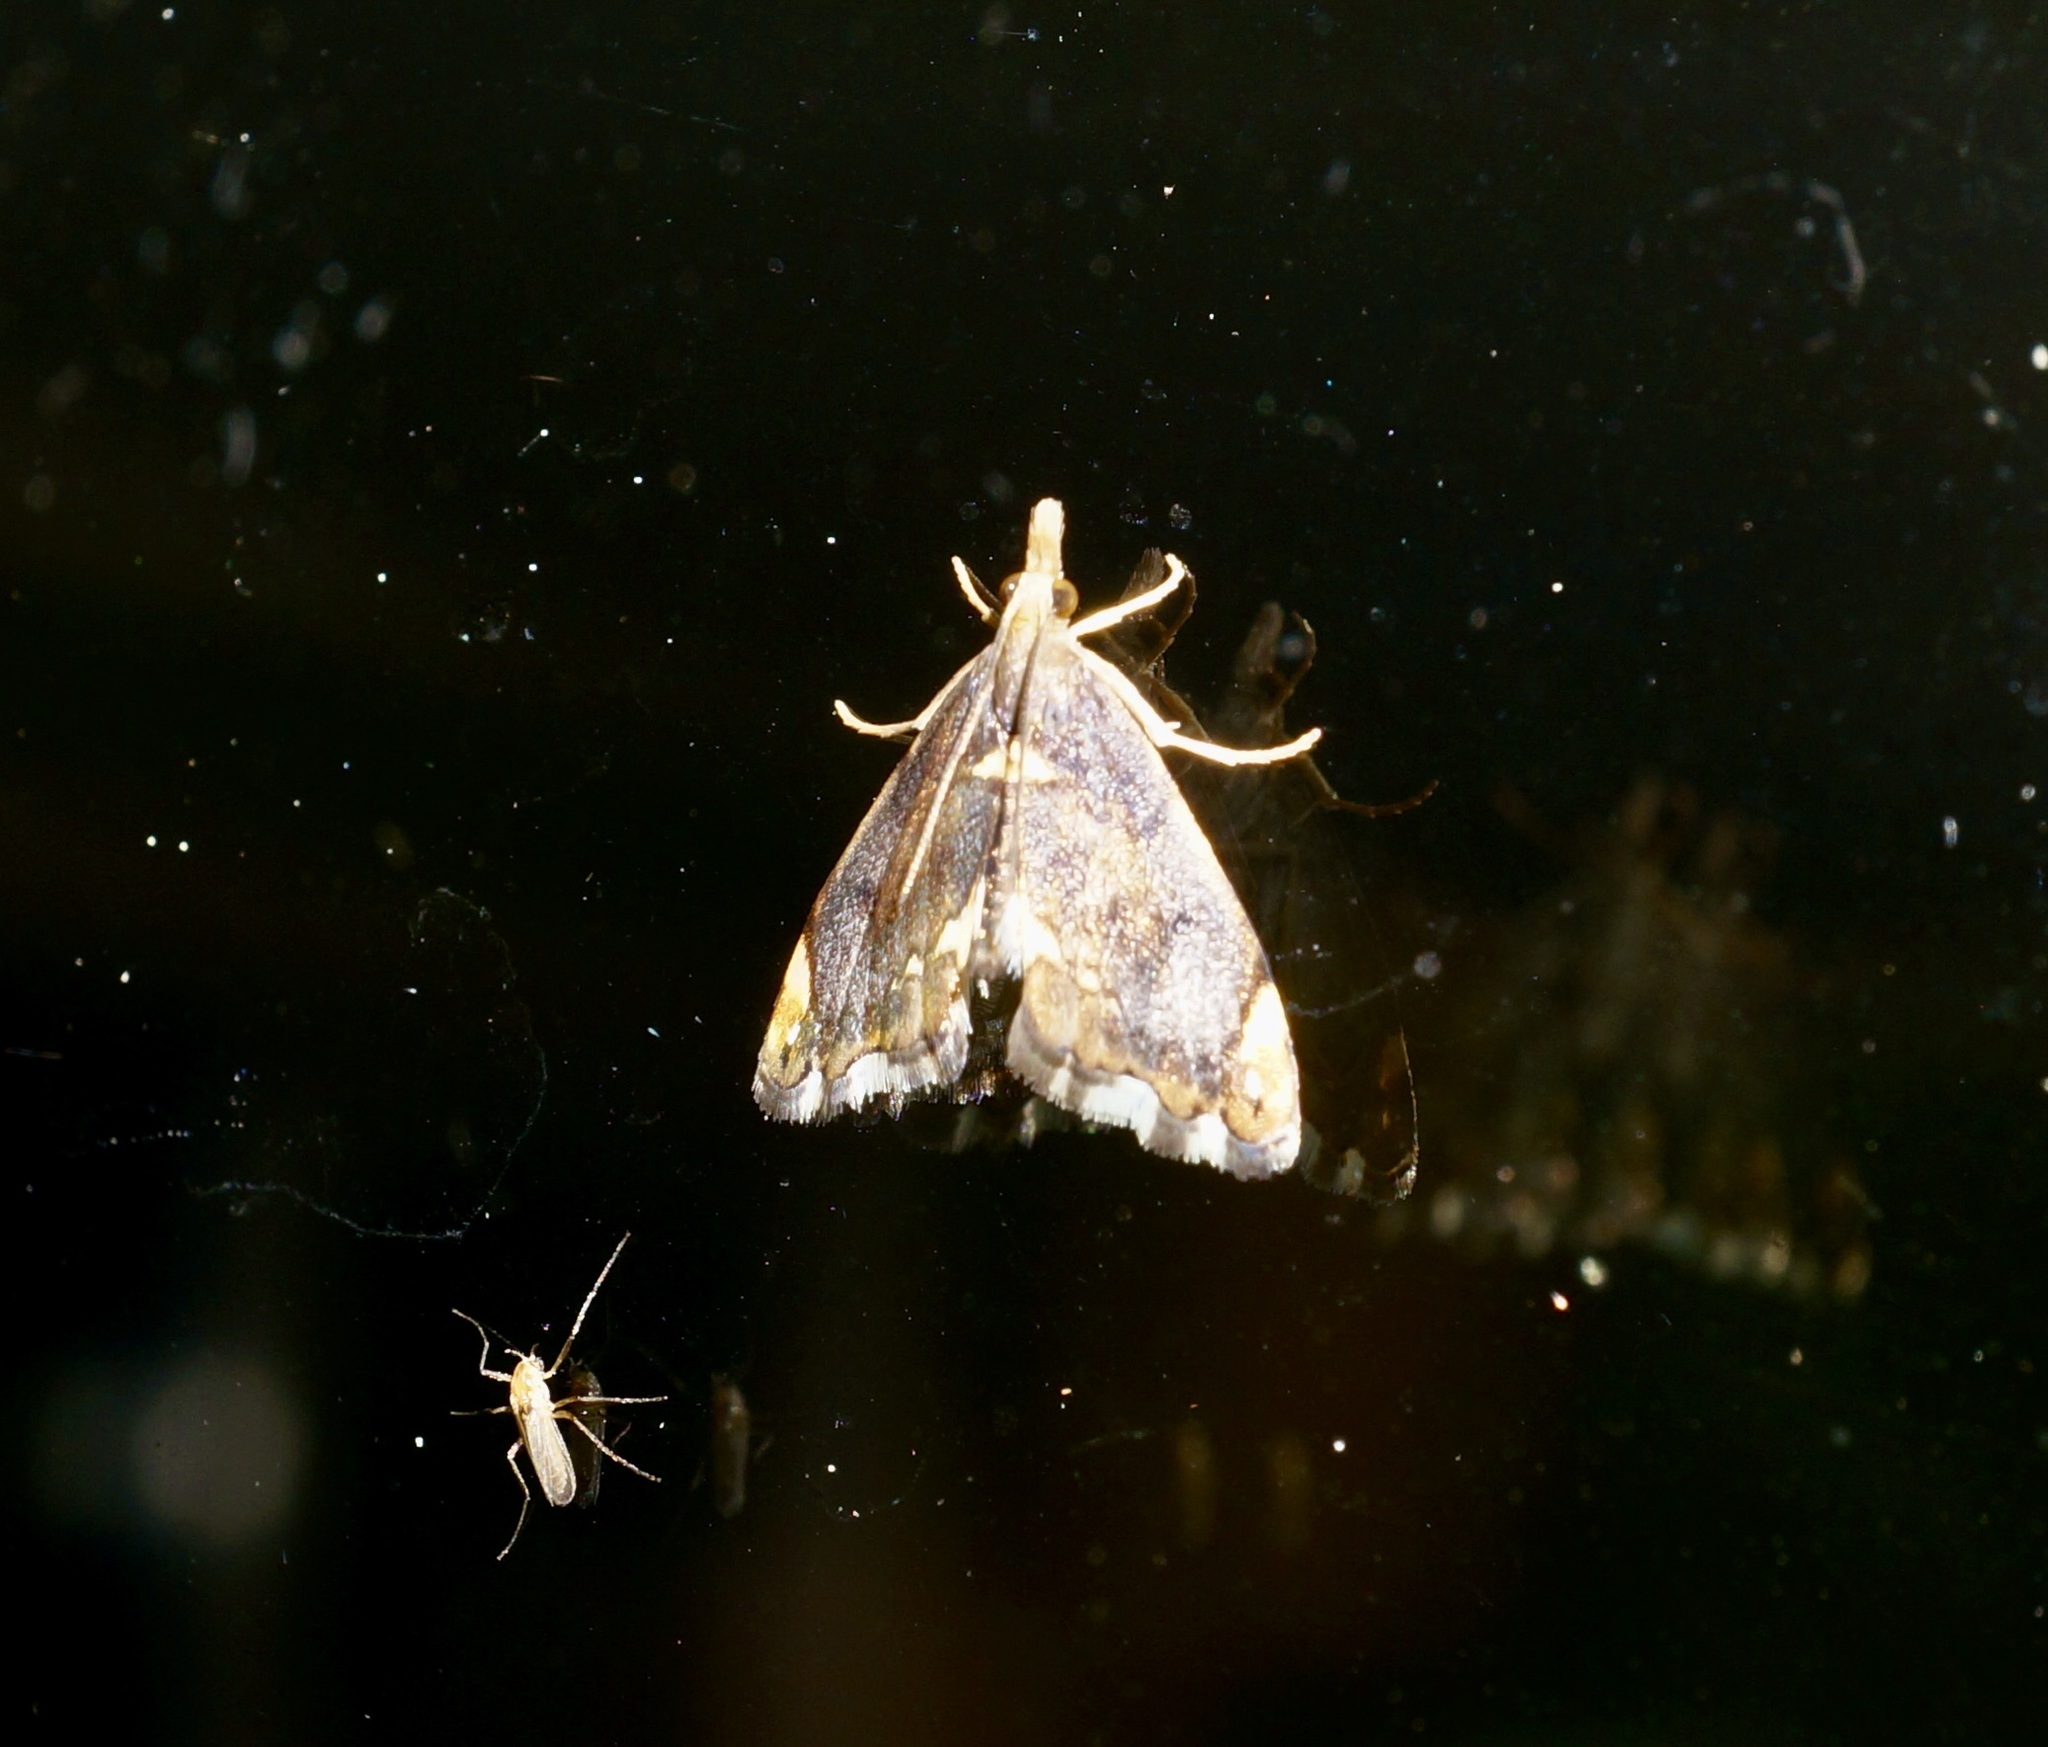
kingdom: Animalia
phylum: Arthropoda
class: Insecta
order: Lepidoptera
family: Crambidae
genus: Glaucocharis
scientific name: Glaucocharis pyrsophanes
